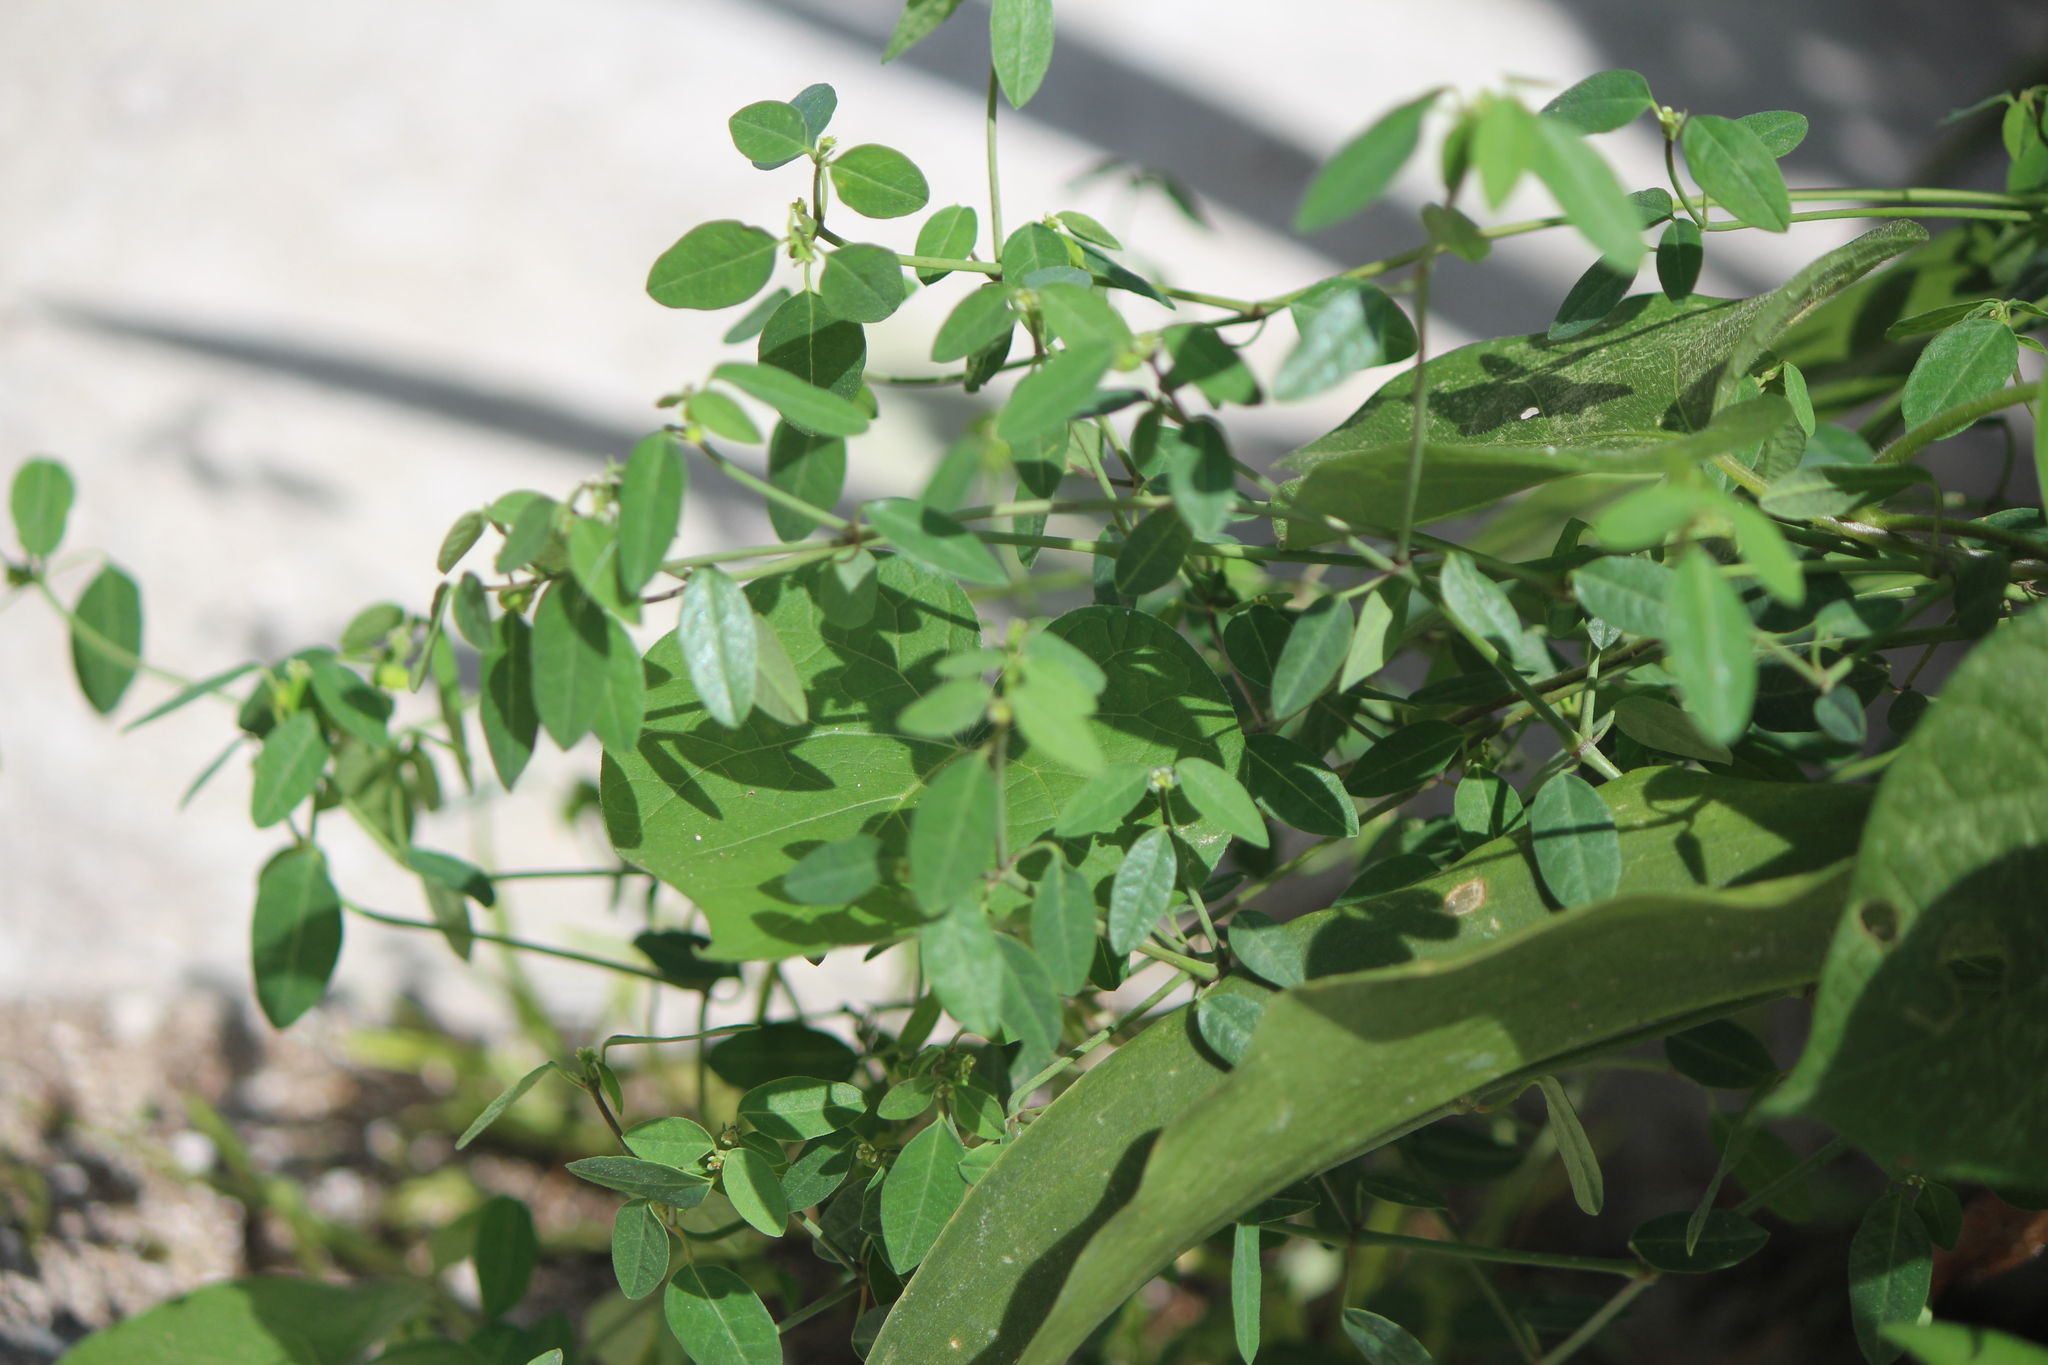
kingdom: Plantae
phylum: Tracheophyta
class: Magnoliopsida
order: Malpighiales
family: Euphorbiaceae
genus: Euphorbia
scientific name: Euphorbia macropus
